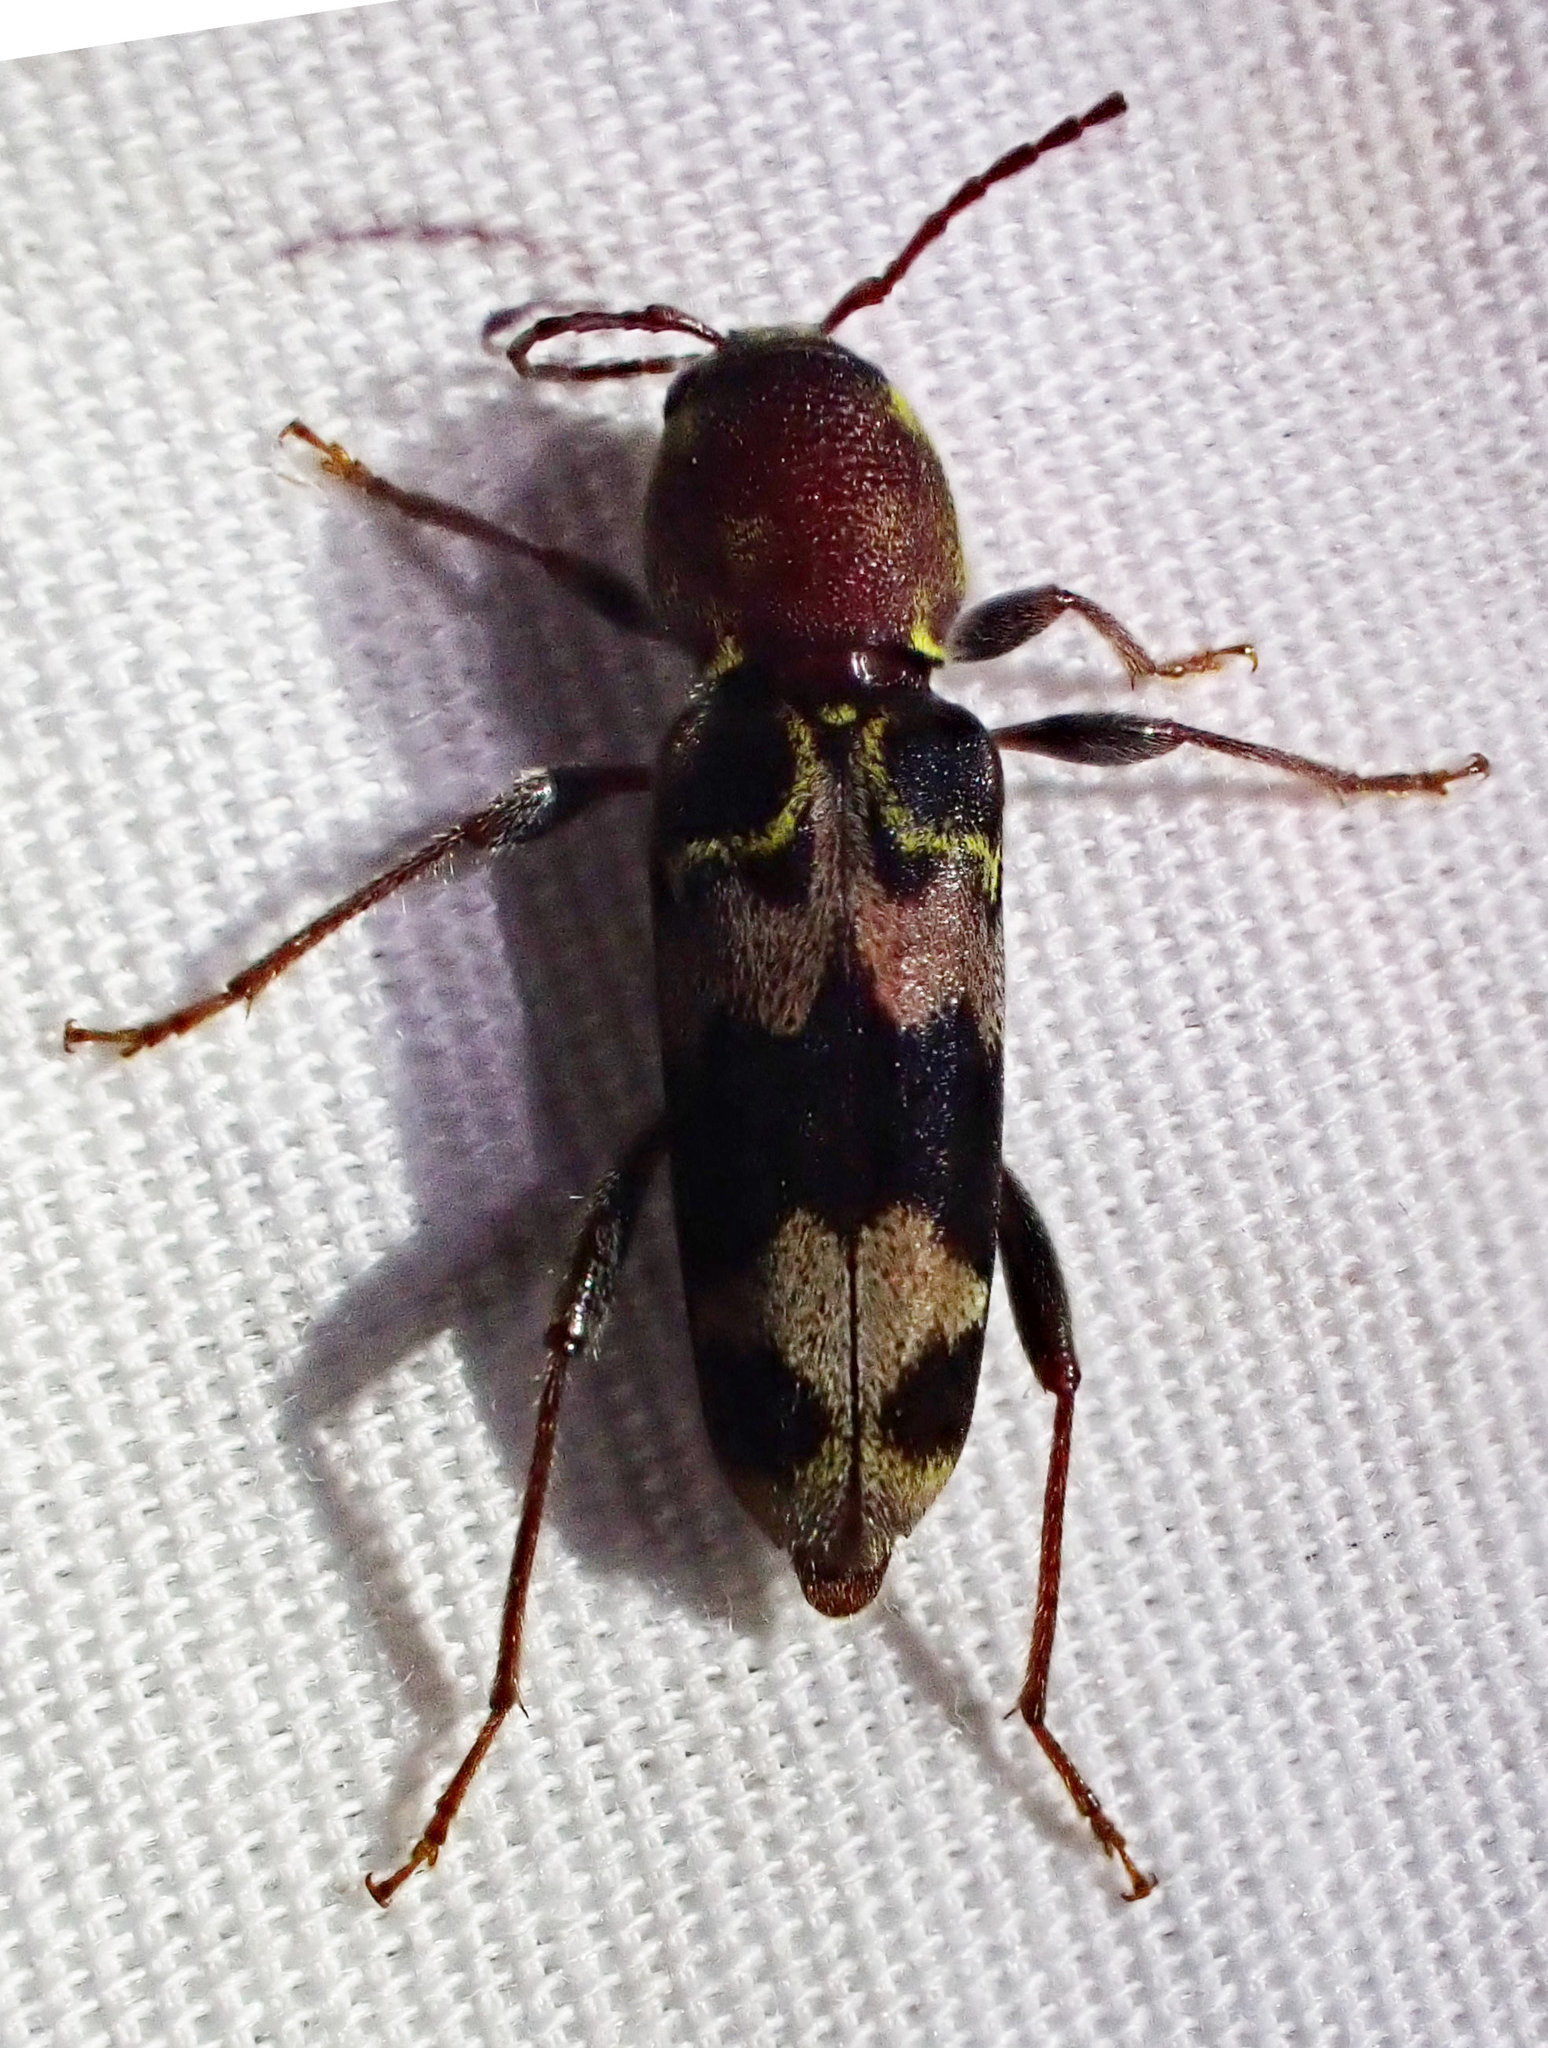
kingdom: Animalia
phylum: Arthropoda
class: Insecta
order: Coleoptera
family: Cerambycidae
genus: Xylotrechus
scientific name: Xylotrechus colonus
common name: Long-horned beetle
